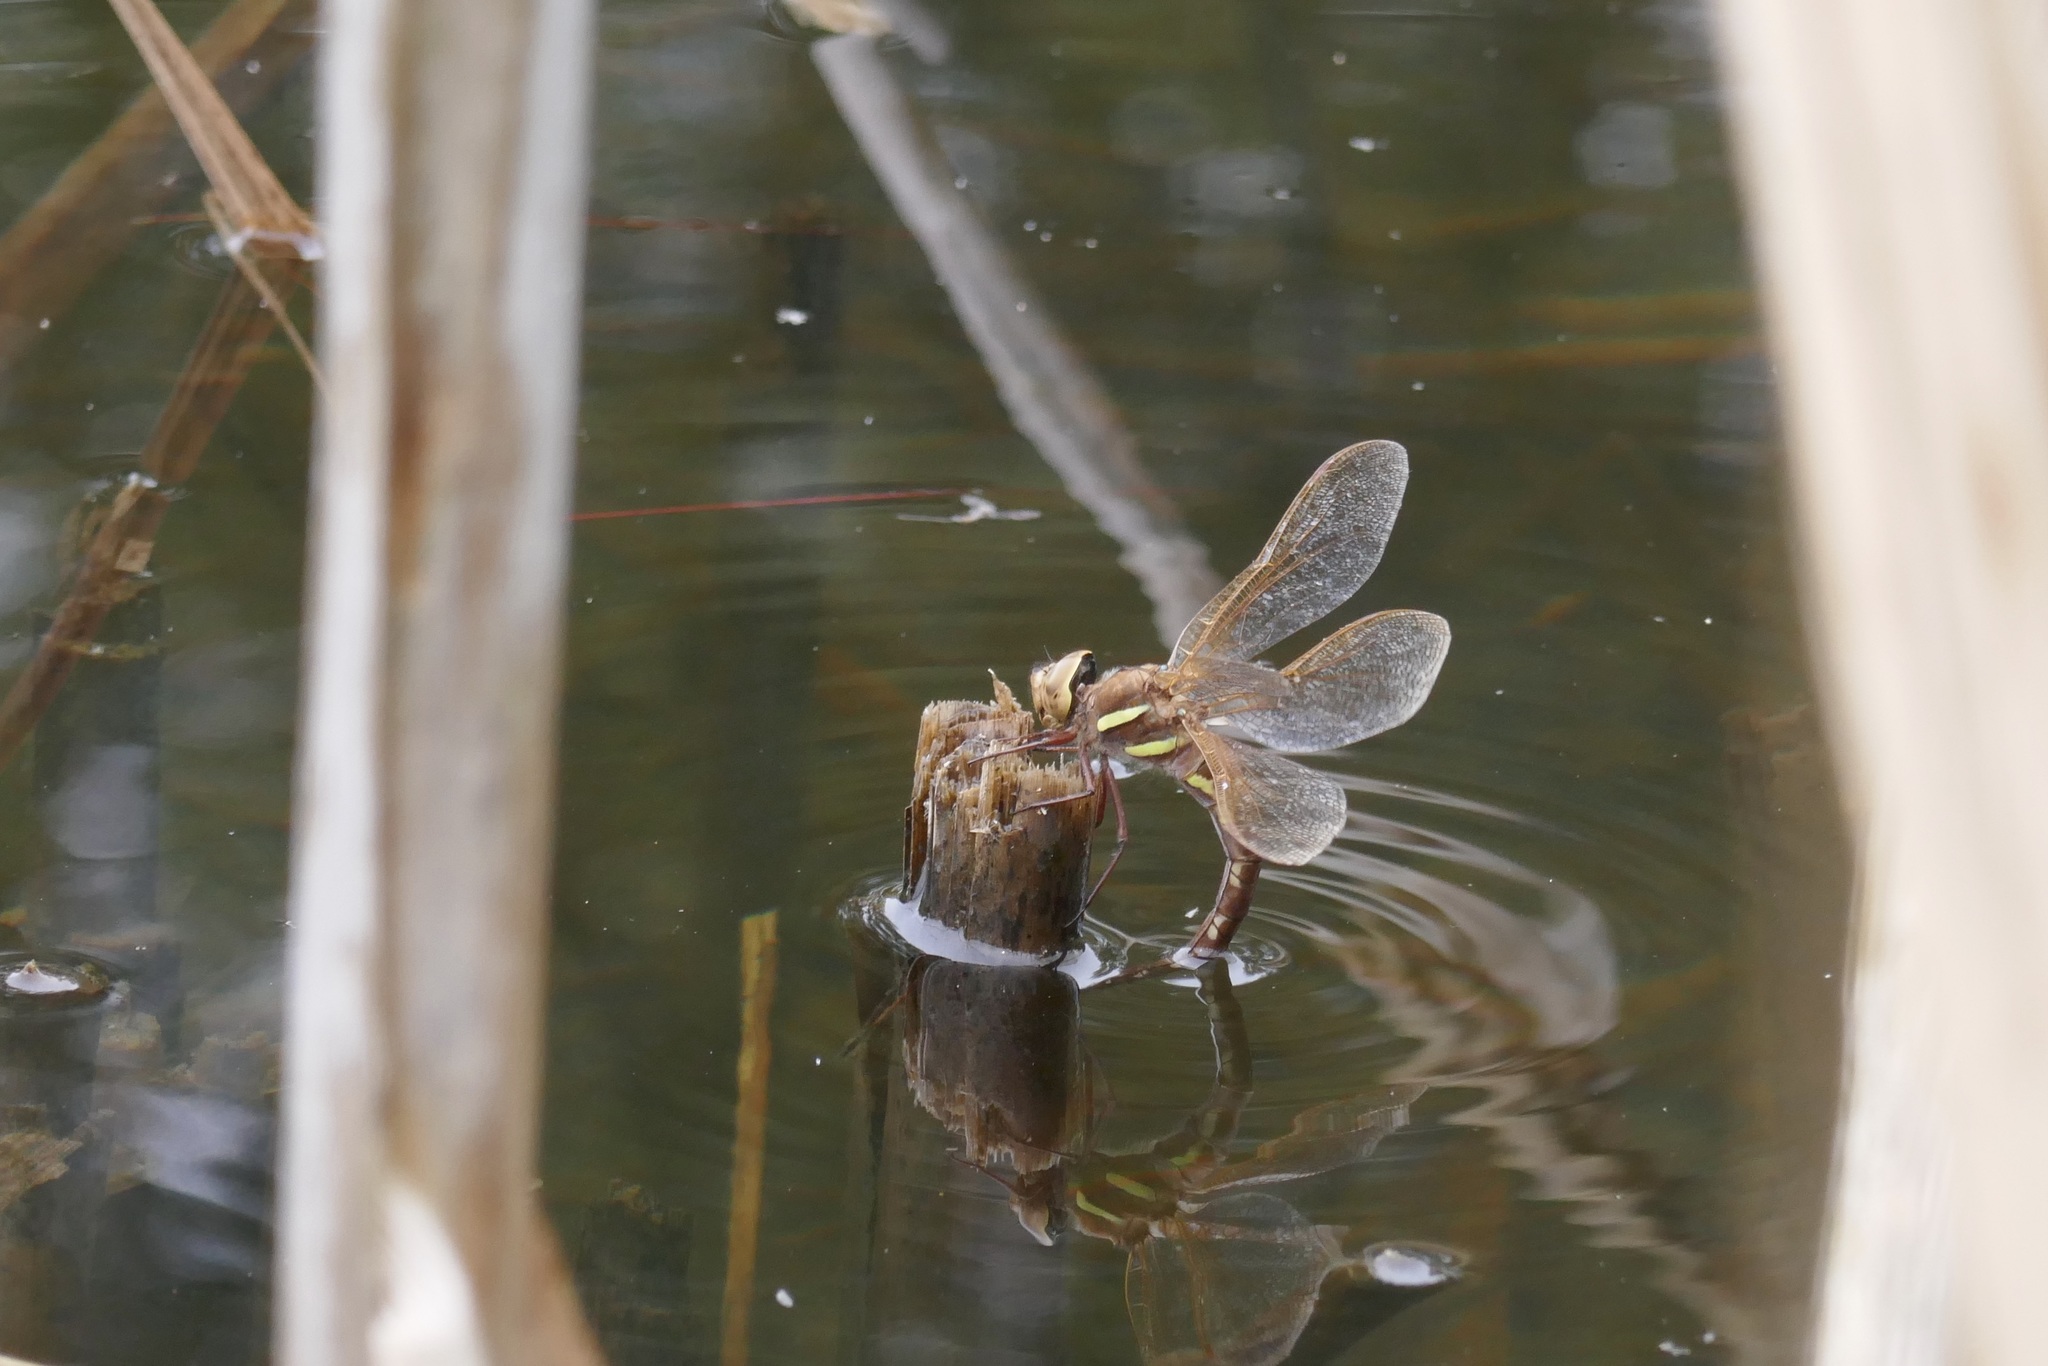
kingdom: Animalia
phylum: Arthropoda
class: Insecta
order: Odonata
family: Aeshnidae
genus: Aeshna
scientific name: Aeshna grandis
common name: Brown hawker
